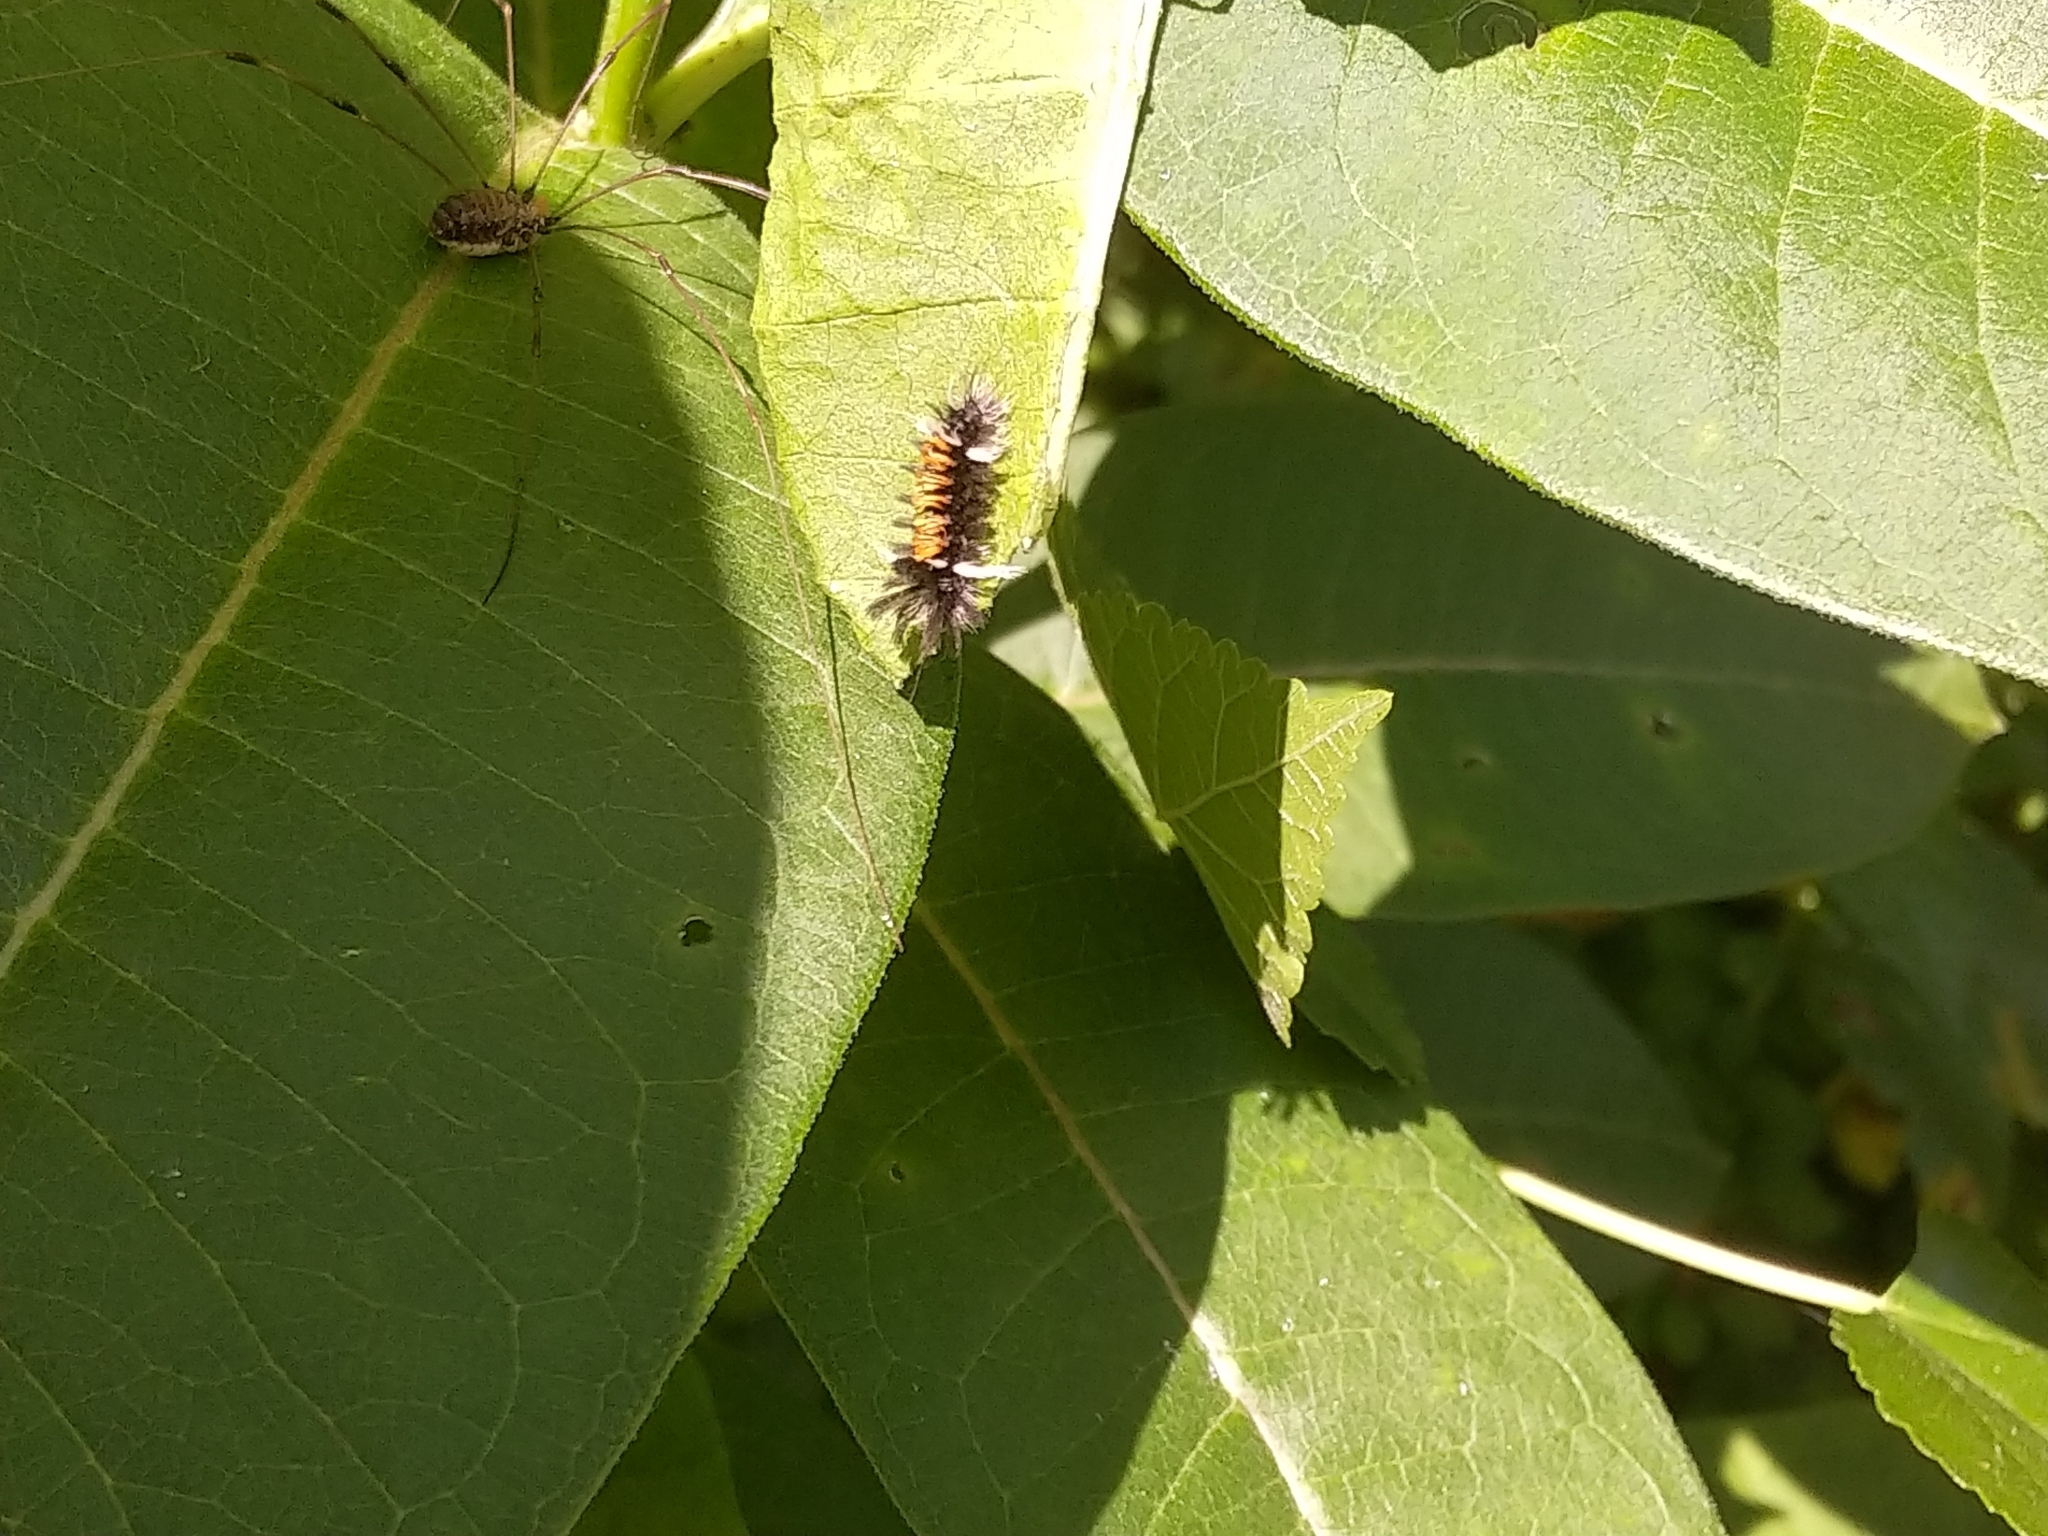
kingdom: Animalia
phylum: Arthropoda
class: Insecta
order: Lepidoptera
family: Erebidae
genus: Euchaetes
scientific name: Euchaetes egle
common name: Milkweed tussock moth
